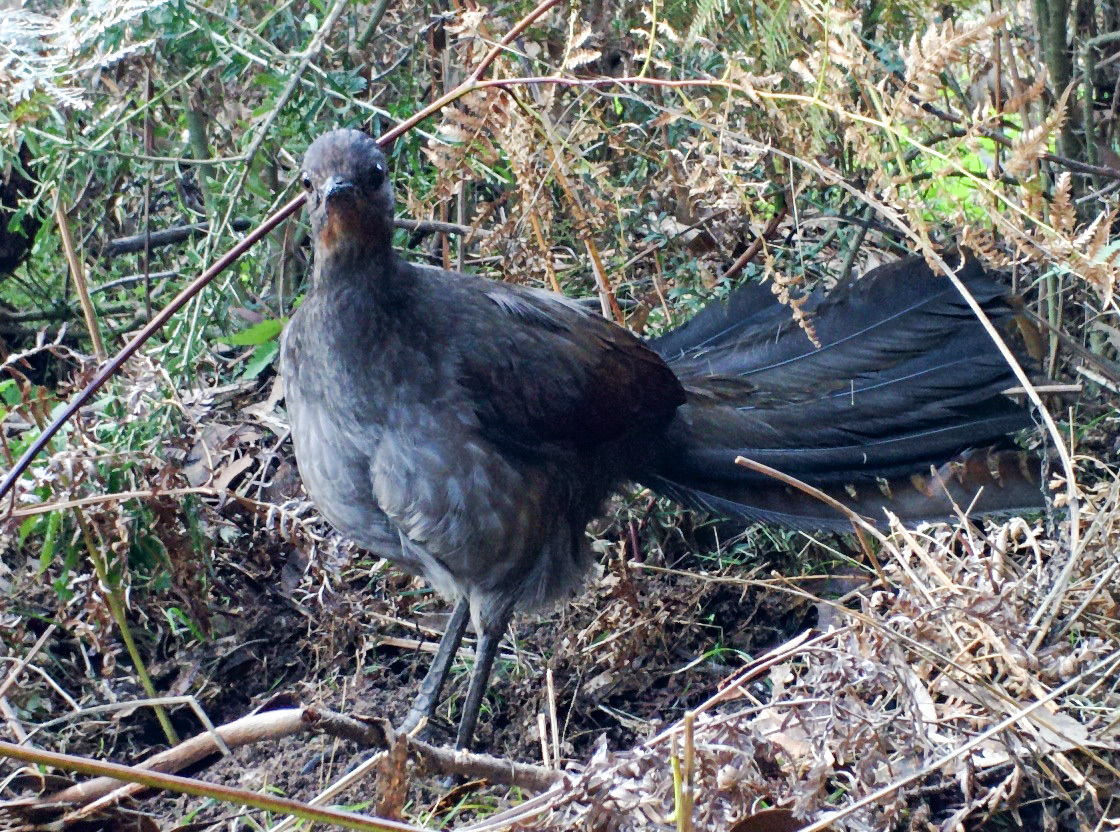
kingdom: Animalia
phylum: Chordata
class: Aves
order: Passeriformes
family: Menuridae
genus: Menura
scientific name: Menura novaehollandiae
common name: Superb lyrebird
